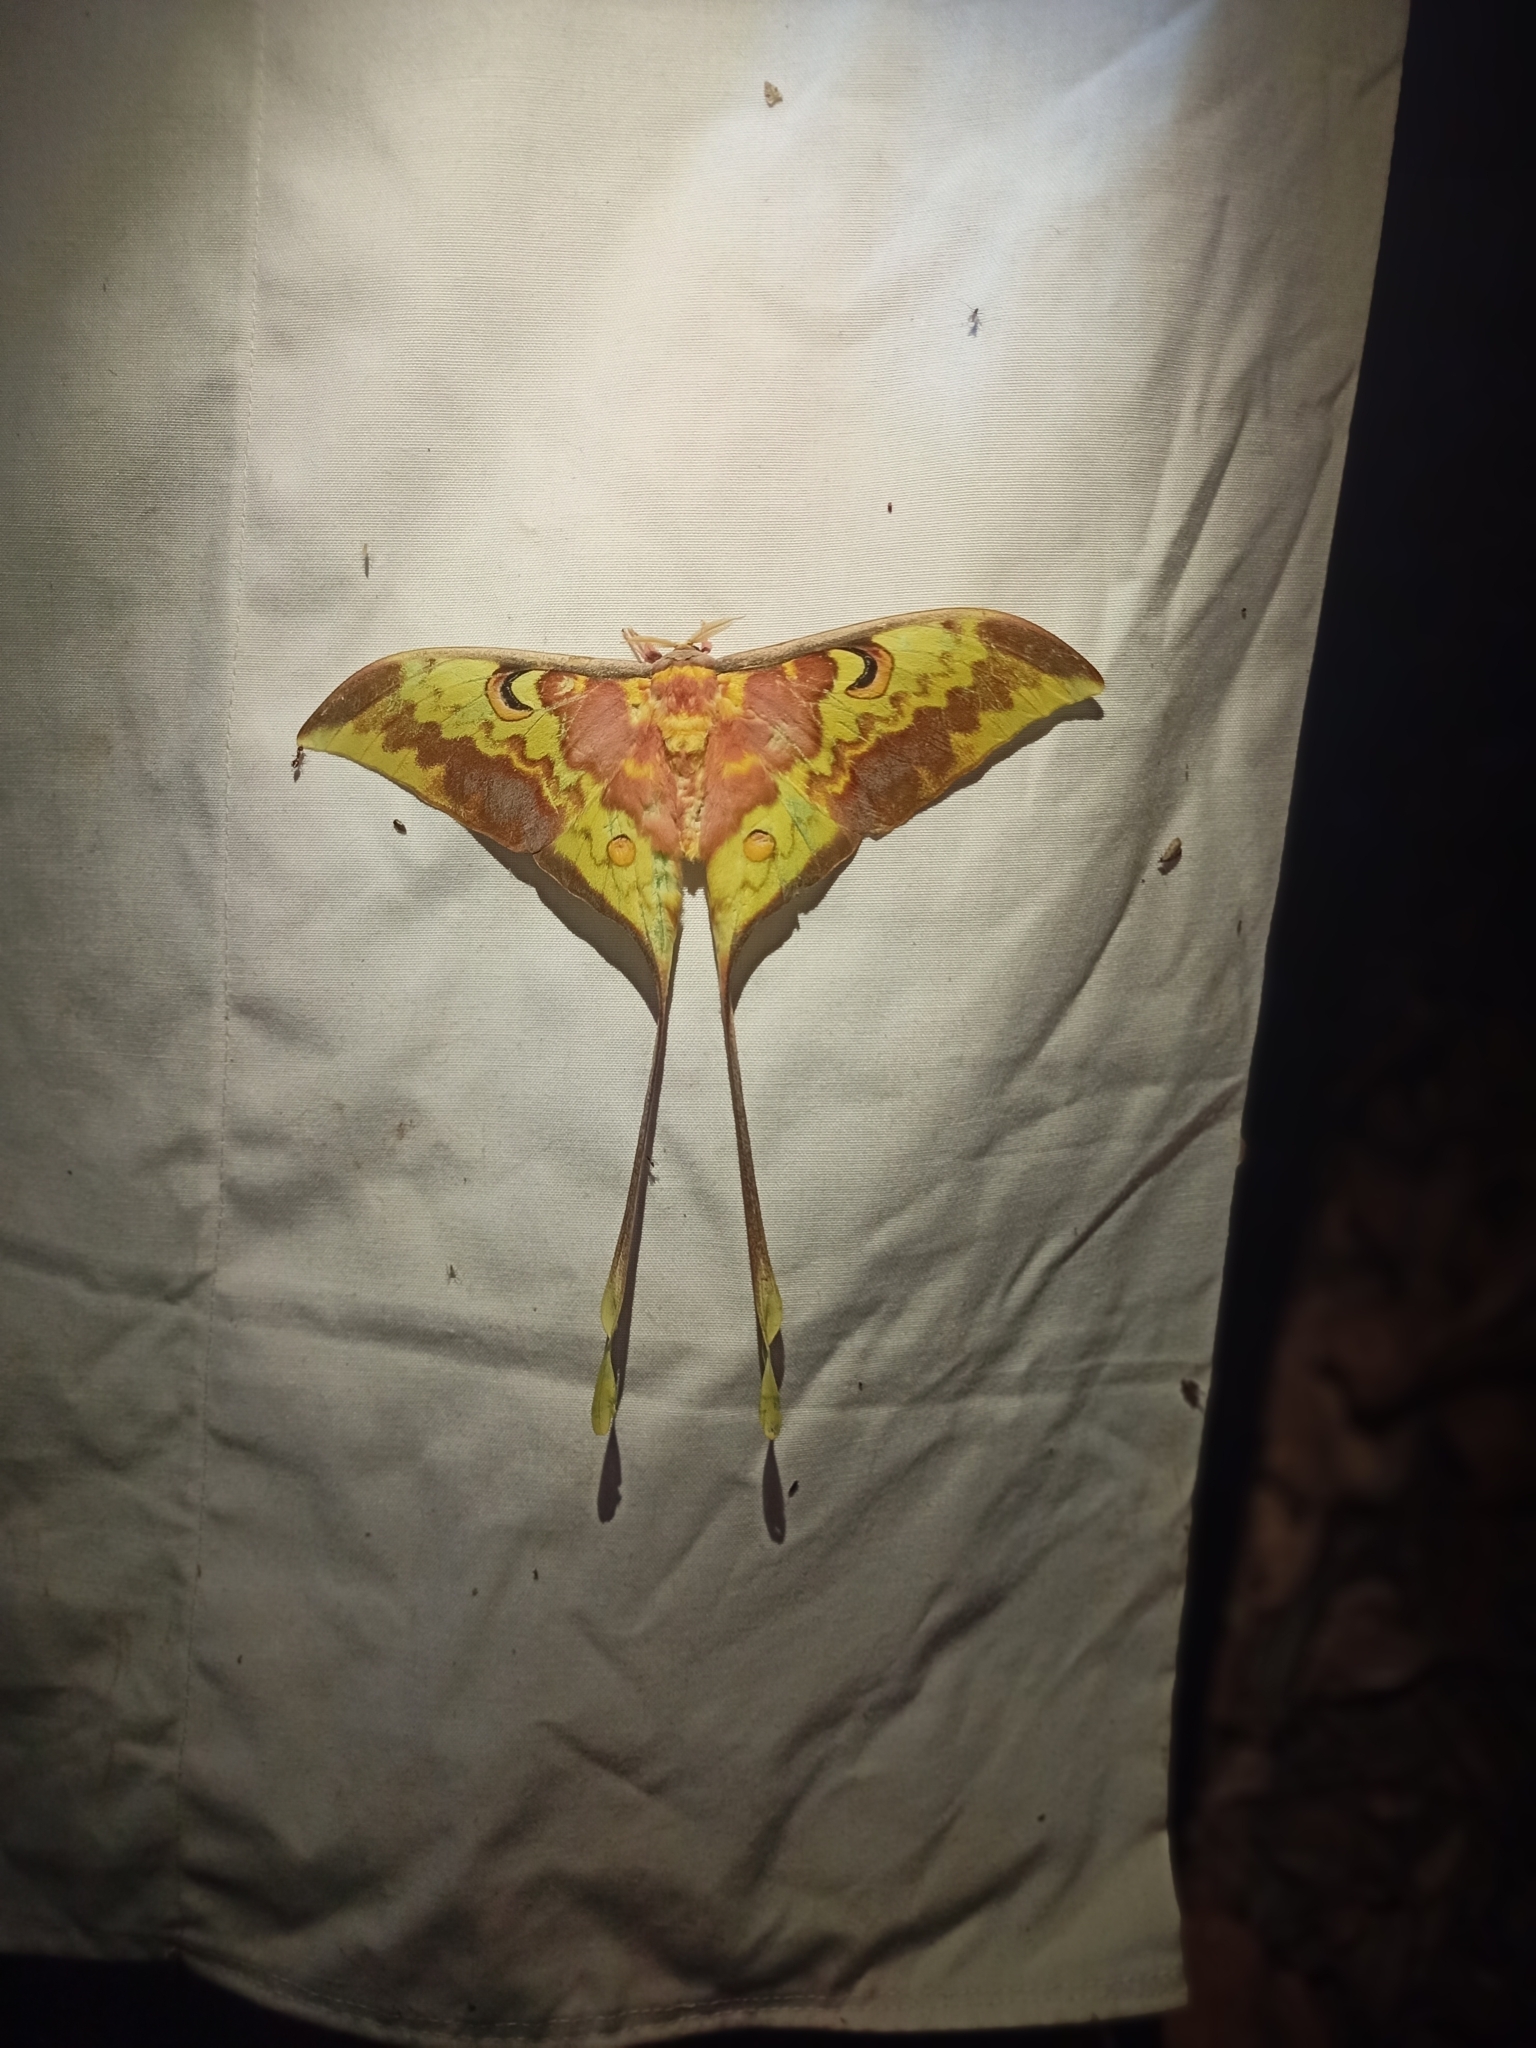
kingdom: Animalia
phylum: Arthropoda
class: Insecta
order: Lepidoptera
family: Saturniidae
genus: Actias
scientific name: Actias
